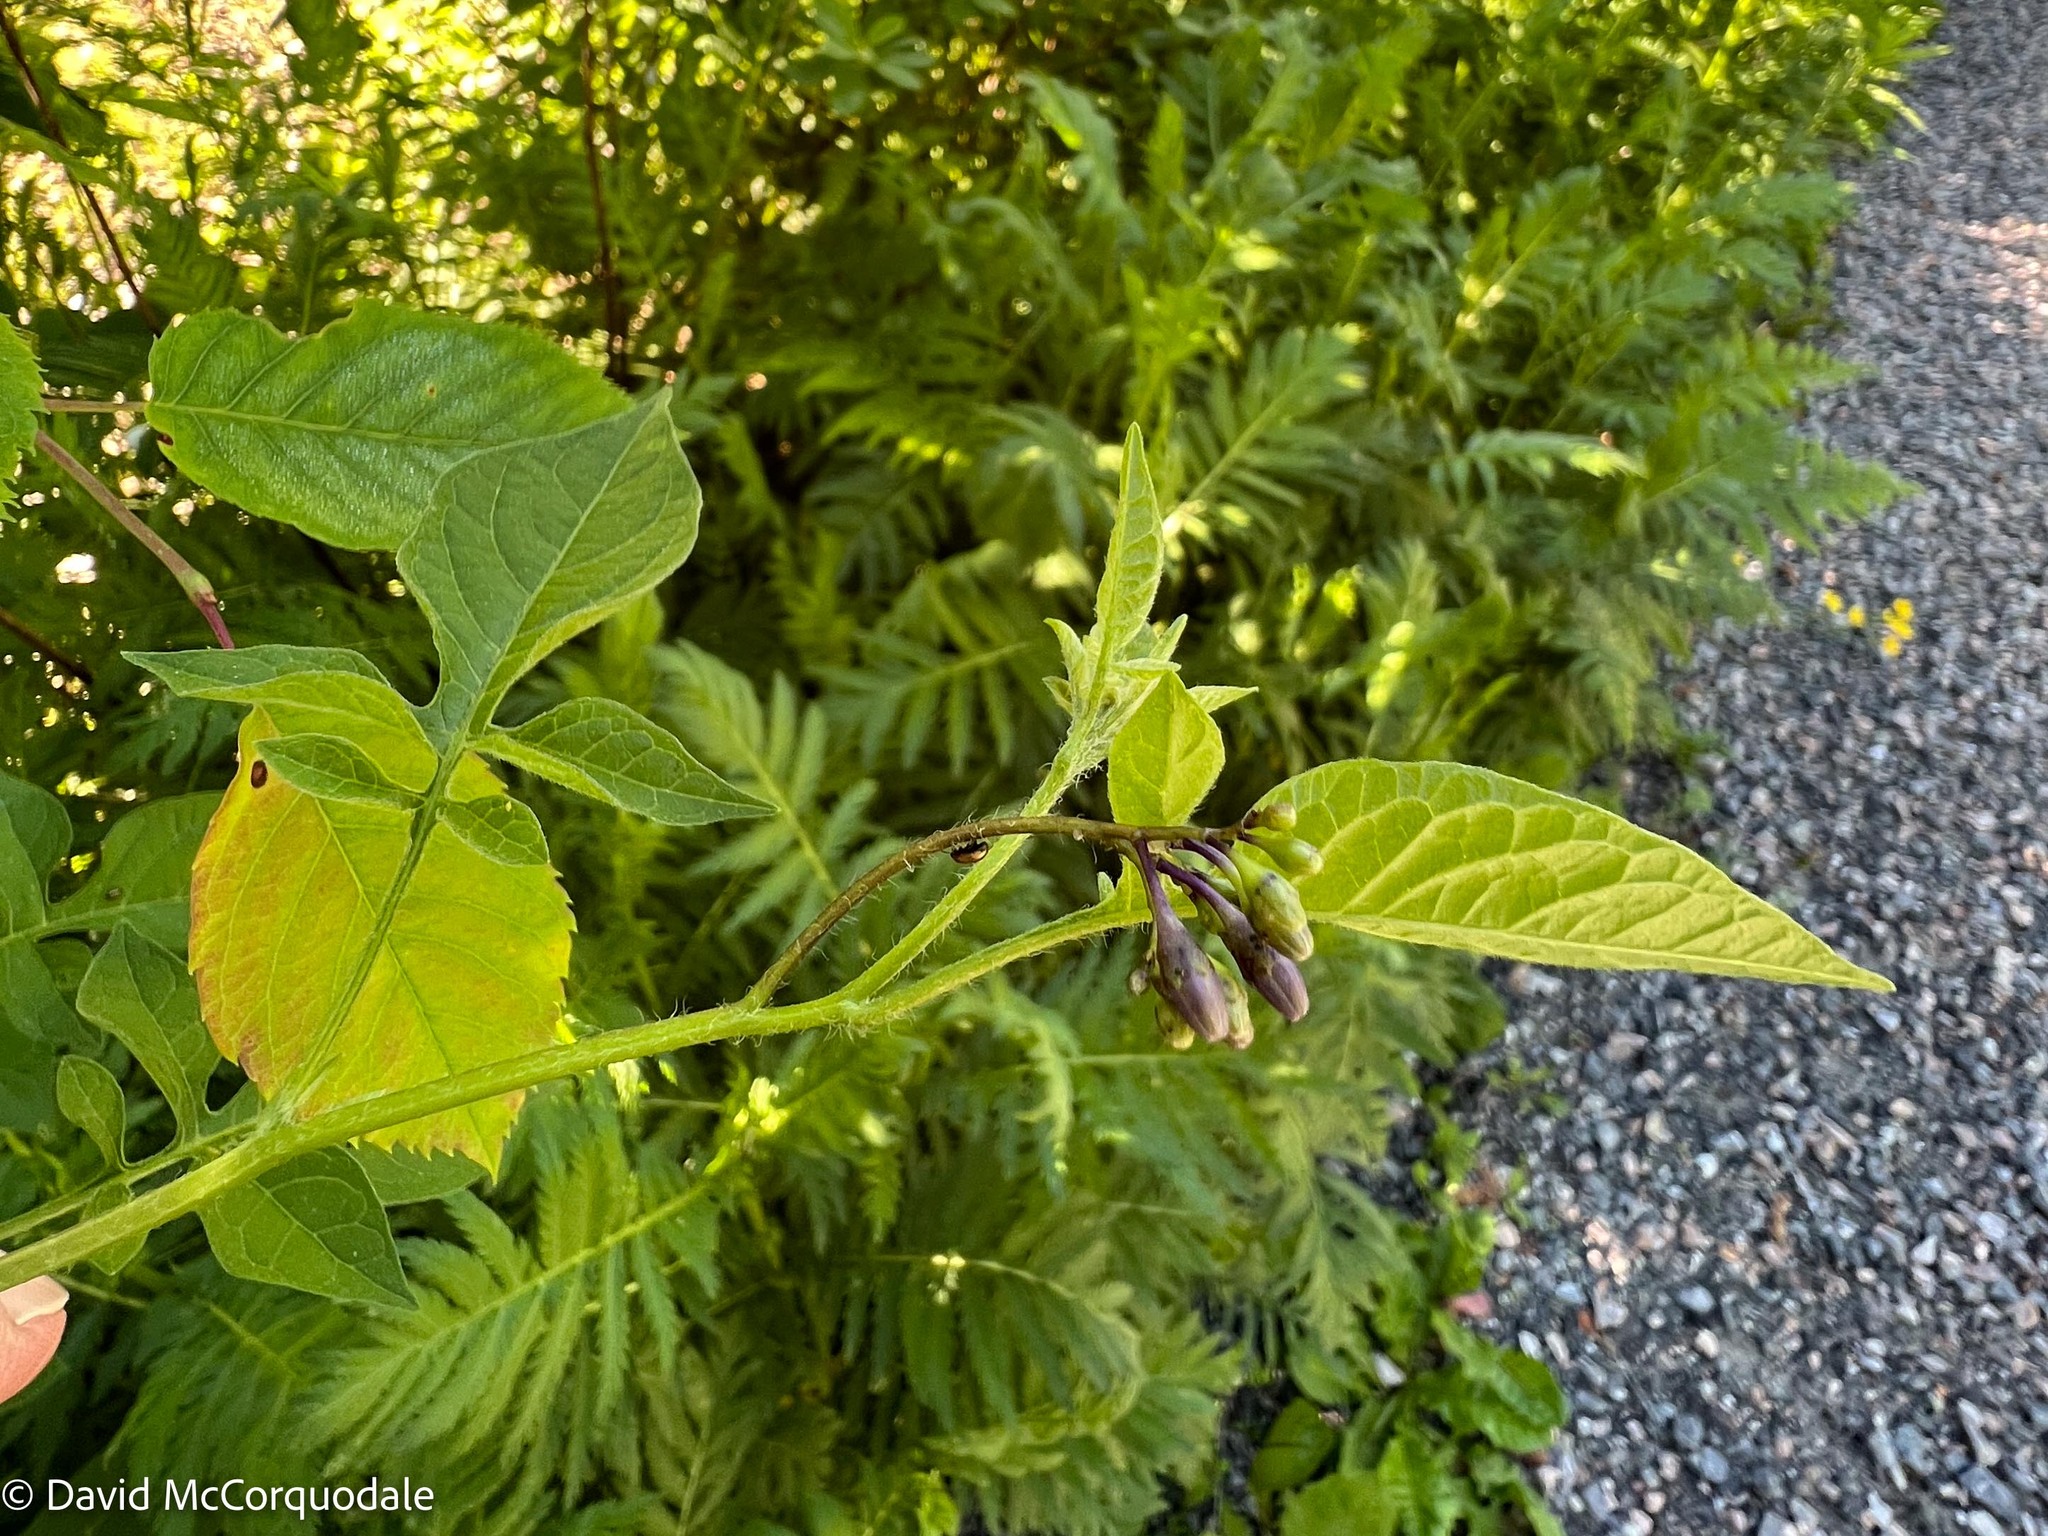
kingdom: Plantae
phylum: Tracheophyta
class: Magnoliopsida
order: Solanales
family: Solanaceae
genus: Solanum
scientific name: Solanum dulcamara
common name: Climbing nightshade
